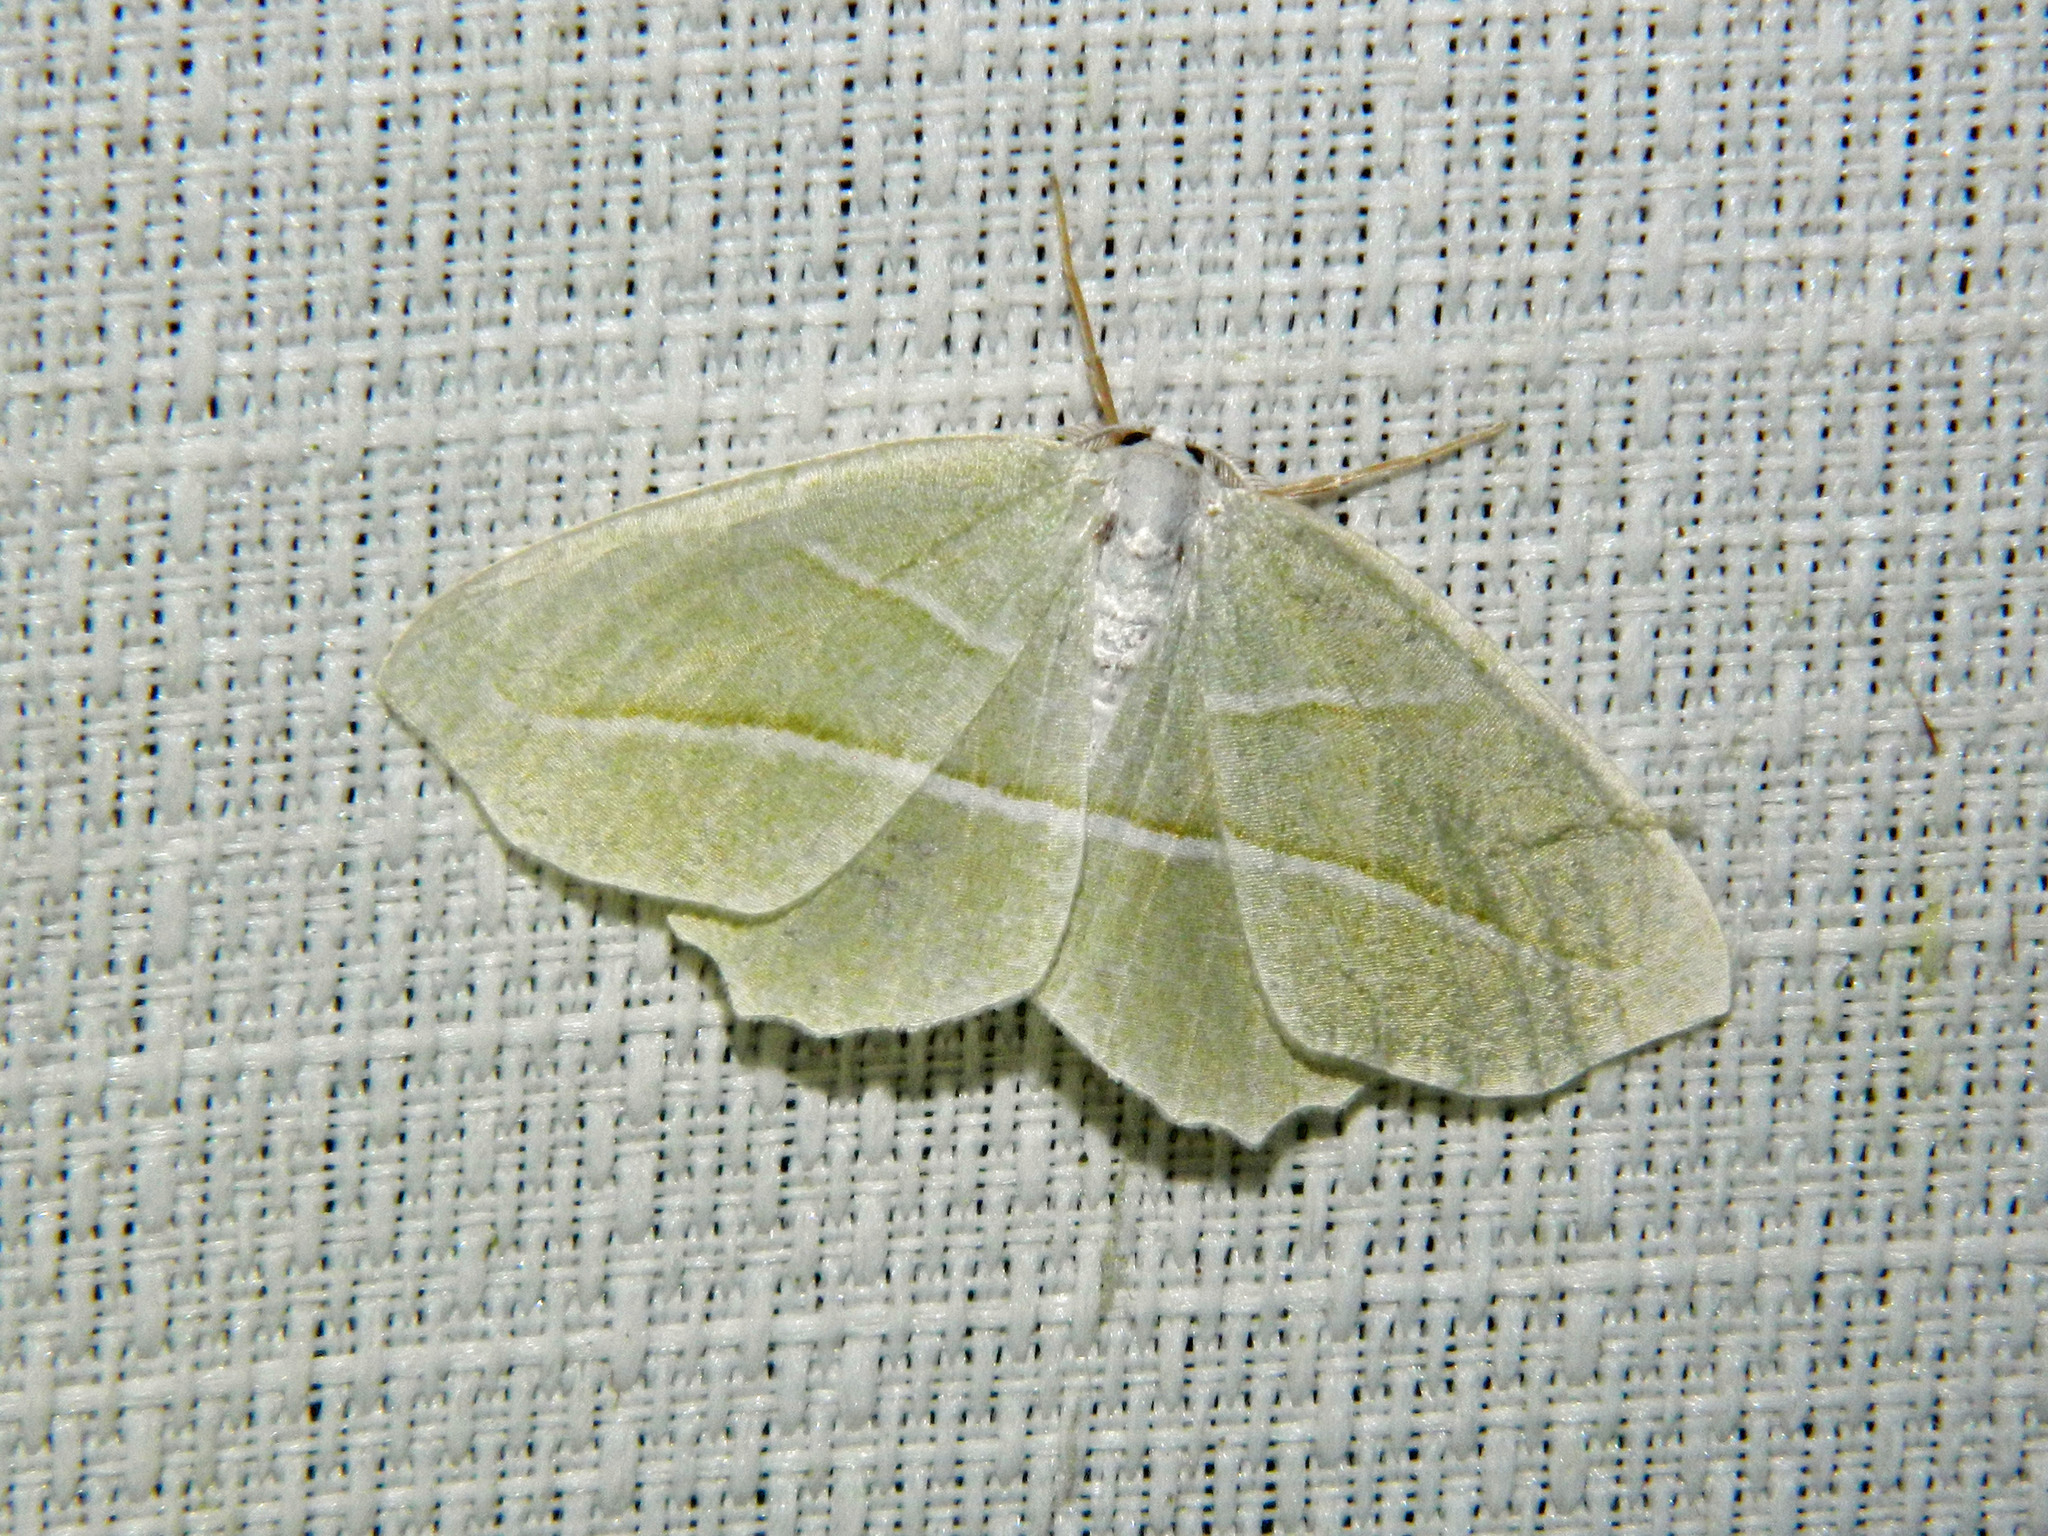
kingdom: Animalia
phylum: Arthropoda
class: Insecta
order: Lepidoptera
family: Geometridae
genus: Campaea
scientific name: Campaea perlata
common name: Fringed looper
